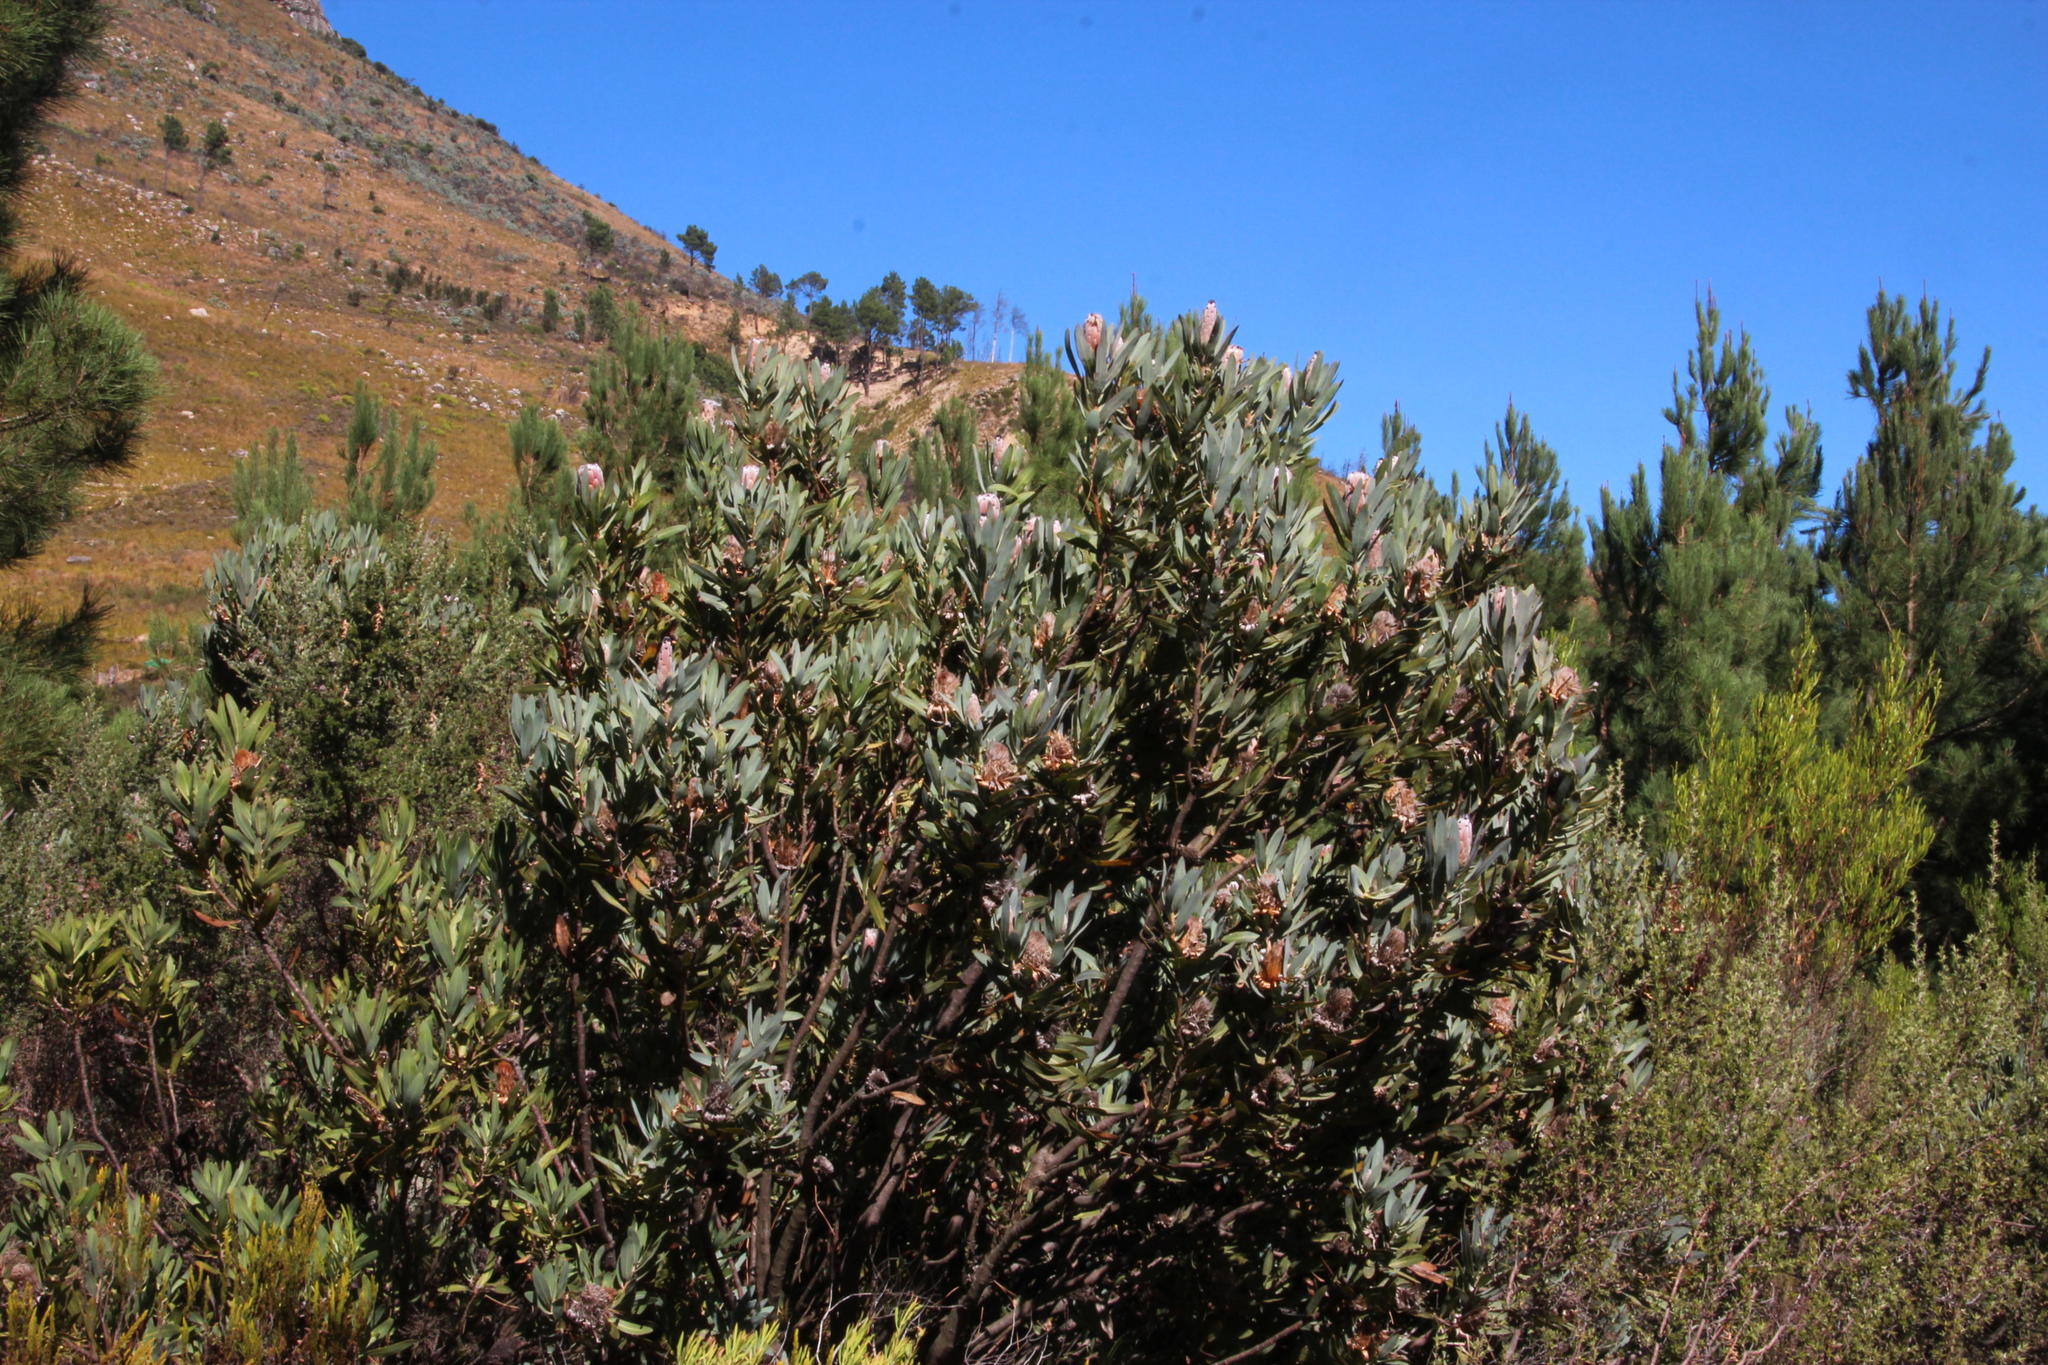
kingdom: Plantae
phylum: Tracheophyta
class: Magnoliopsida
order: Proteales
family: Proteaceae
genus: Protea
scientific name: Protea laurifolia
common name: Grey-leaf sugarbsh
